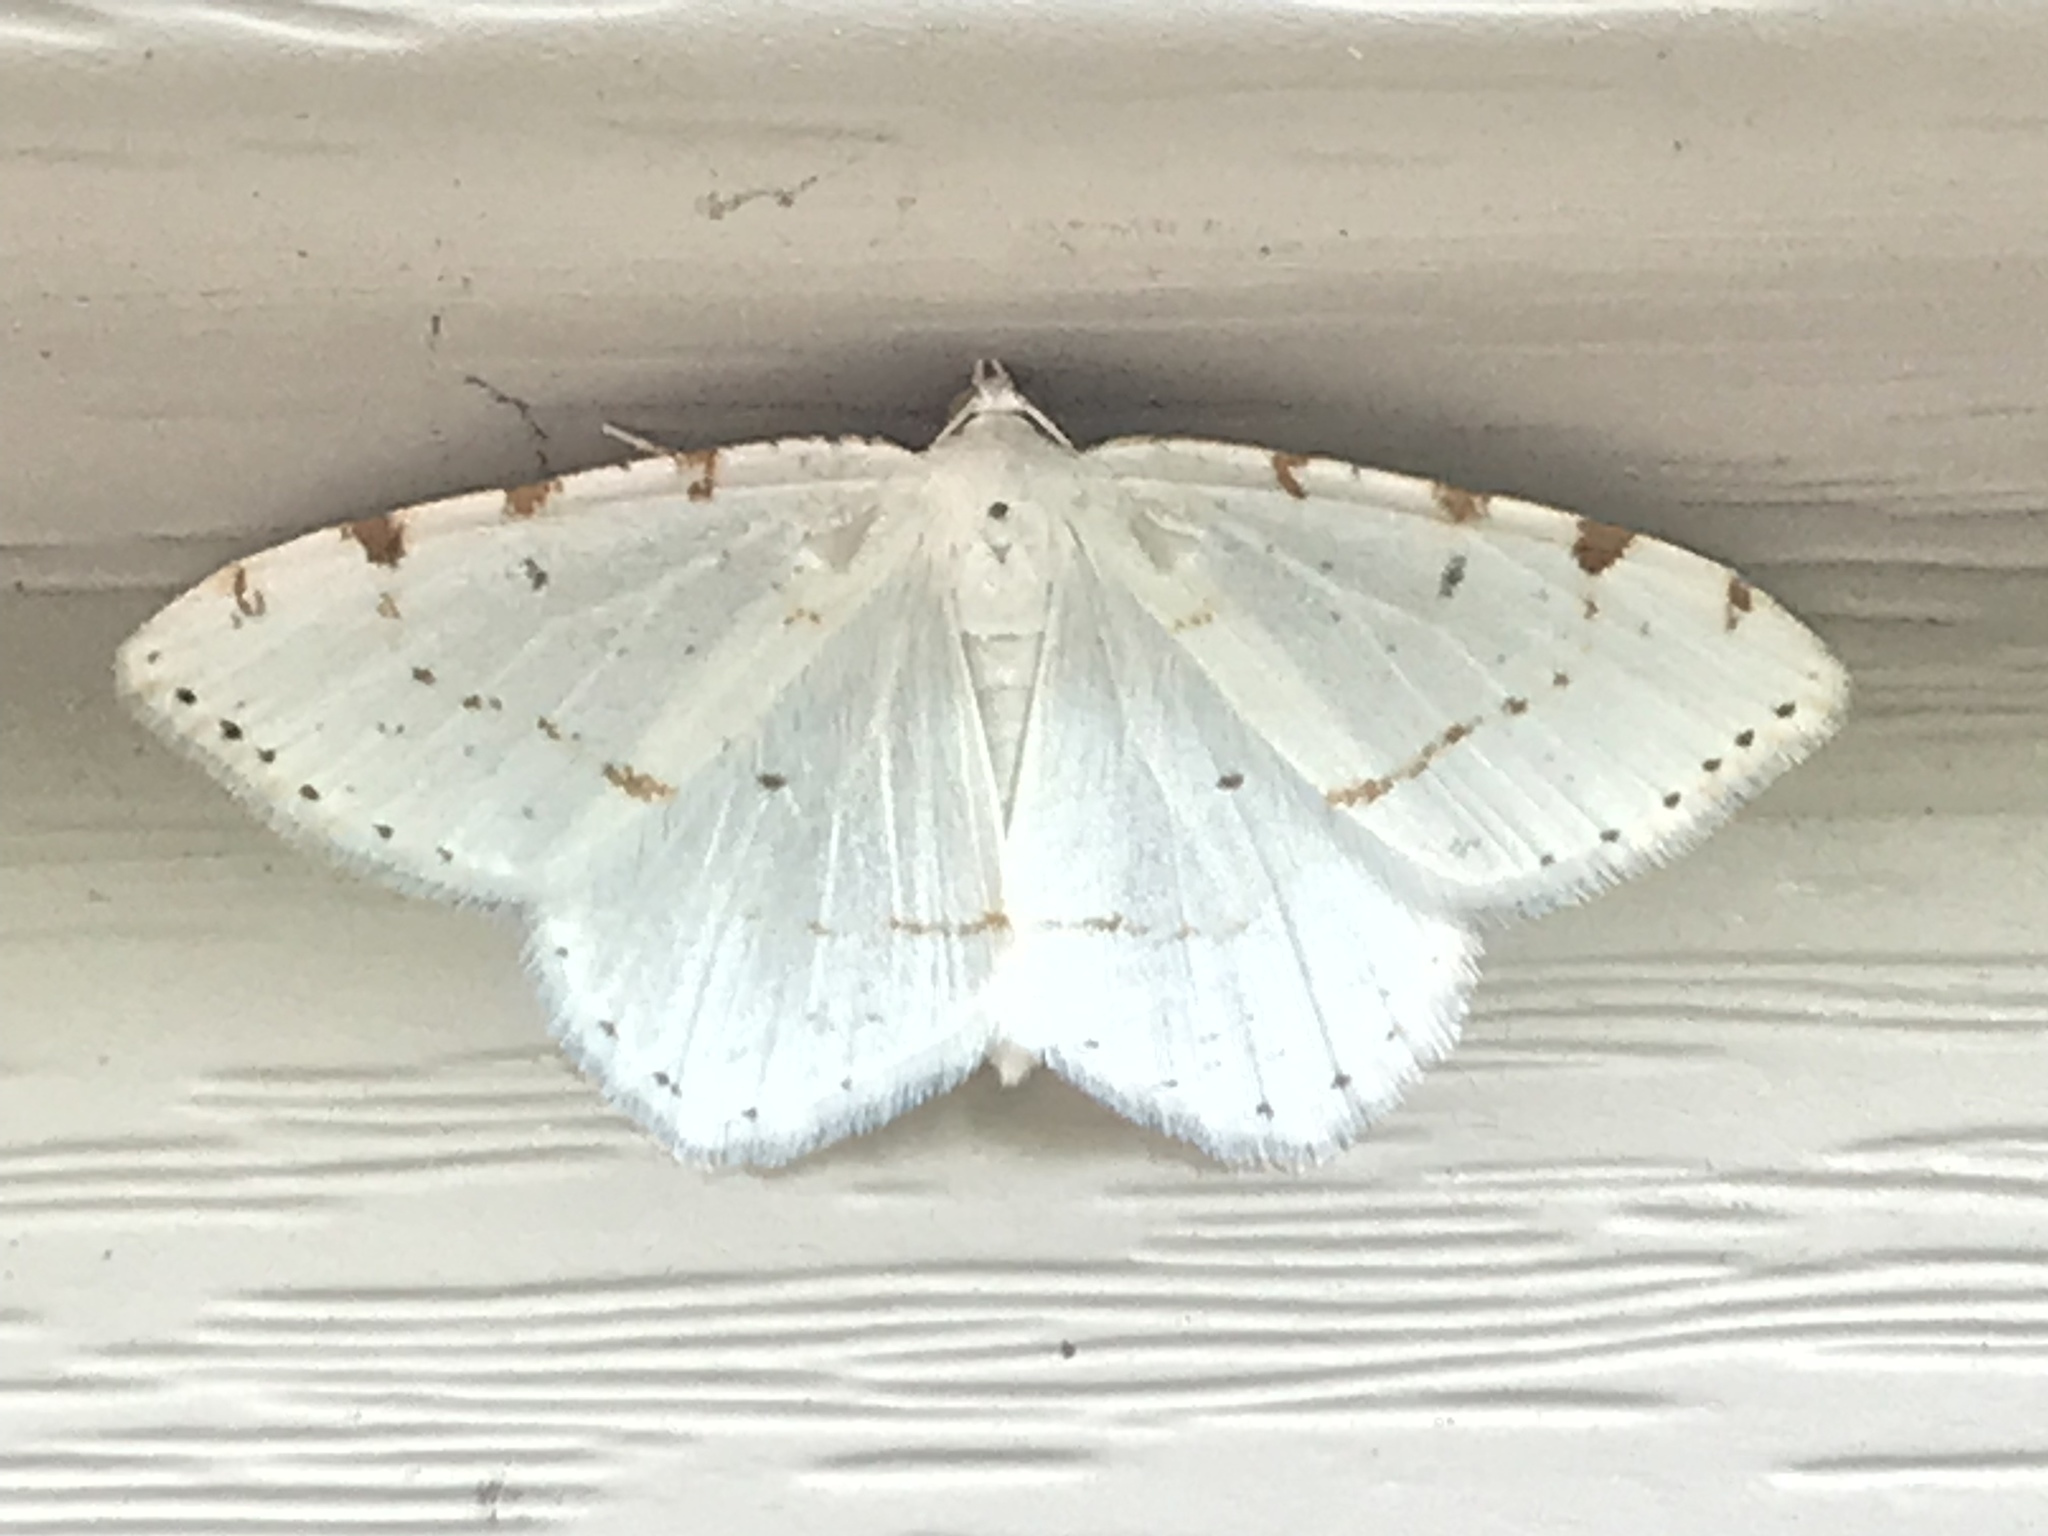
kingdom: Animalia
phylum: Arthropoda
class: Insecta
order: Lepidoptera
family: Geometridae
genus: Macaria
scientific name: Macaria pustularia
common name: Lesser maple spanworm moth
